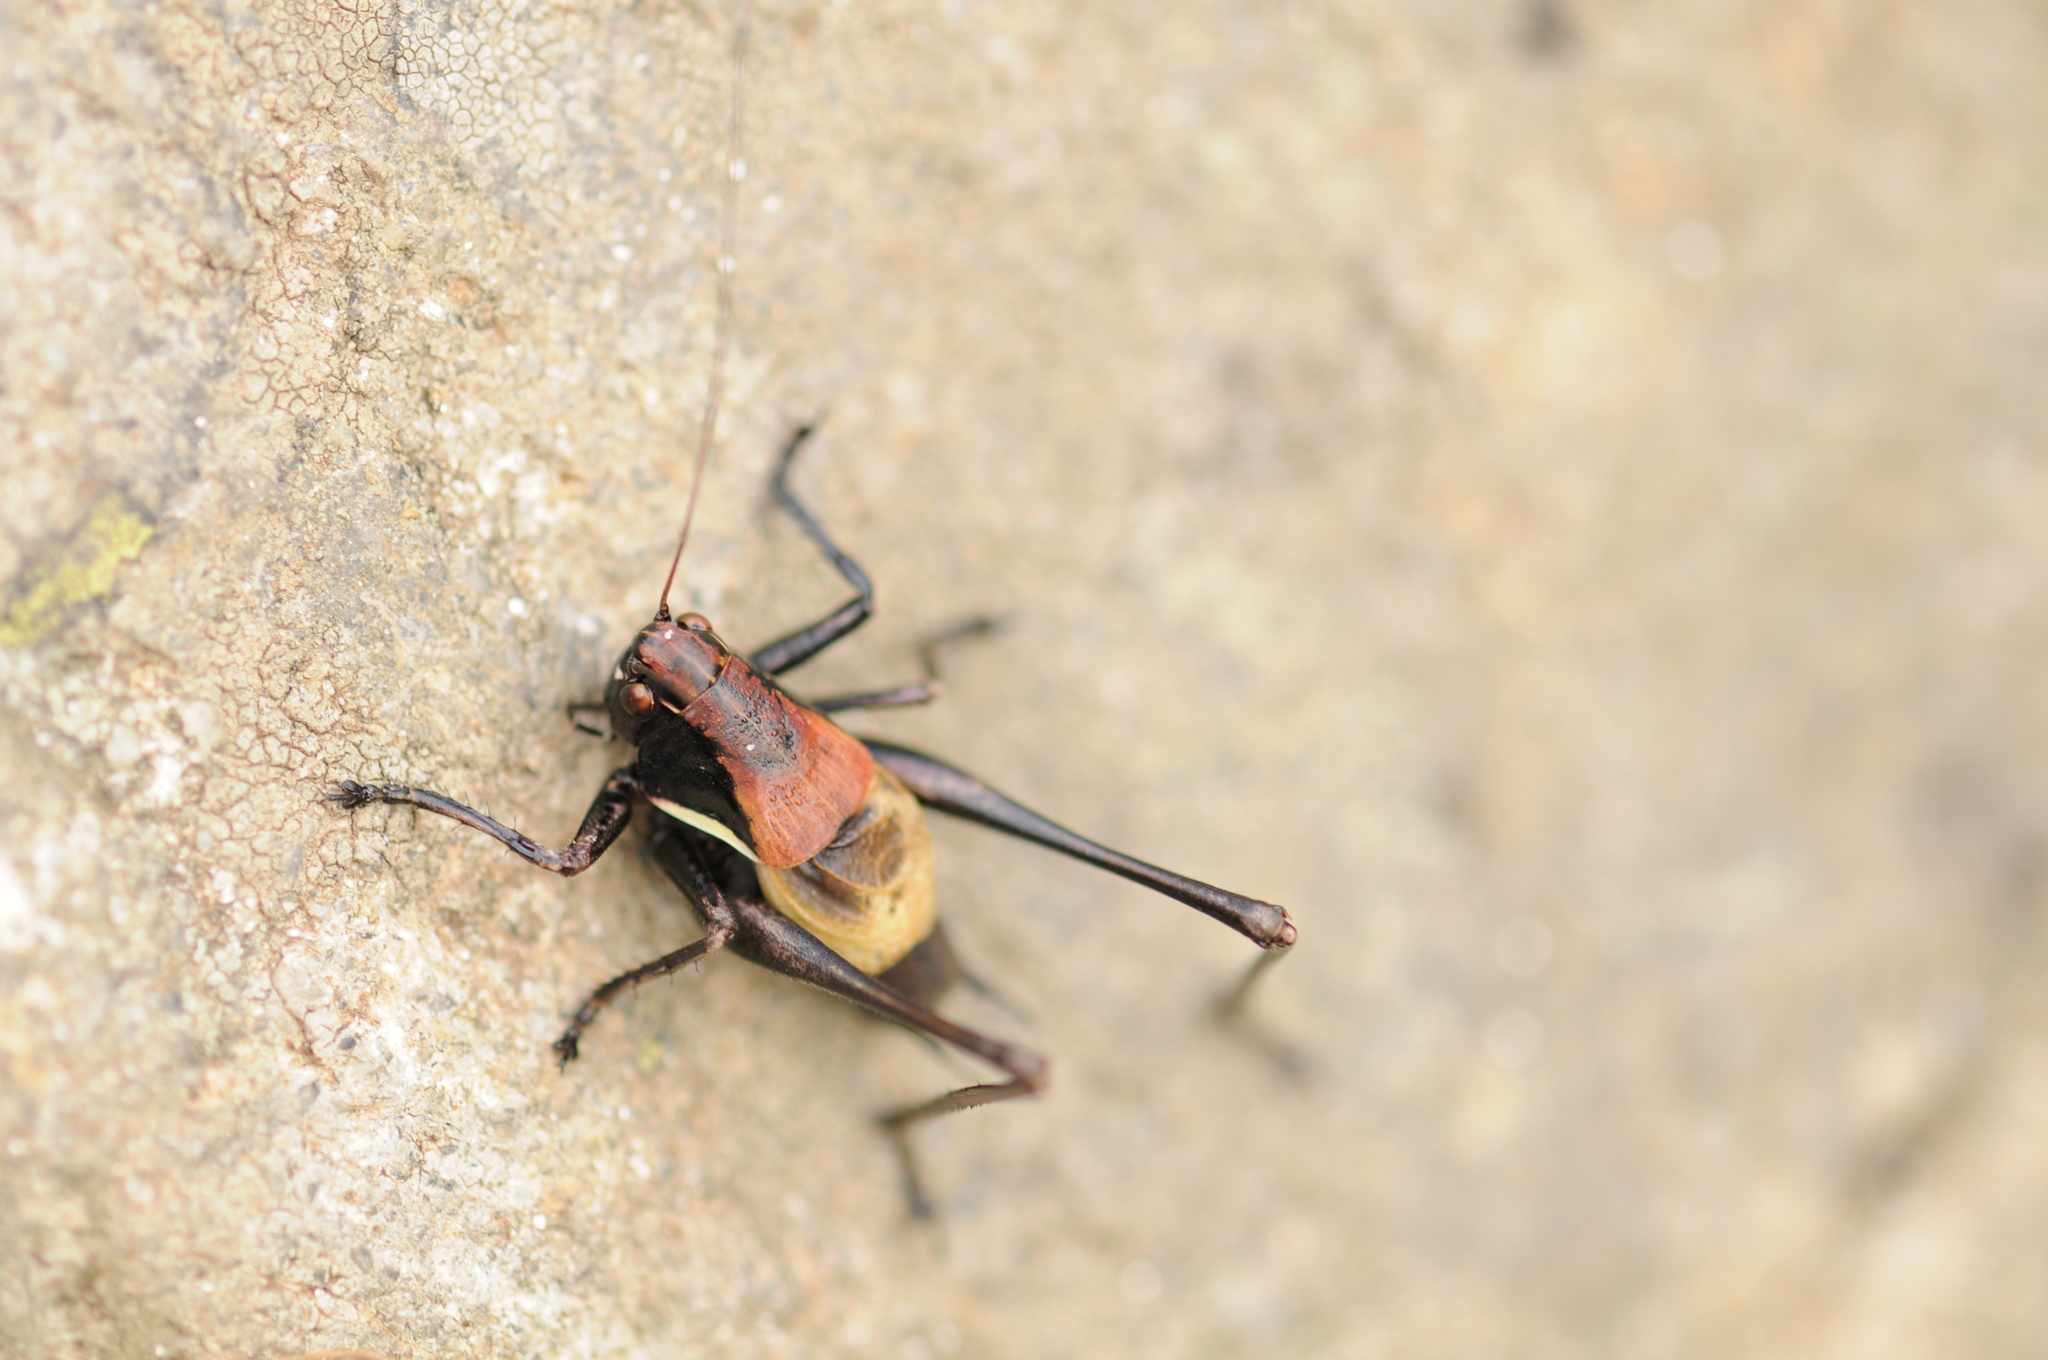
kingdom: Animalia
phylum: Arthropoda
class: Insecta
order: Orthoptera
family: Tettigoniidae
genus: Pholidoptera
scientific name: Pholidoptera aptera
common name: Alpine dark bush-cricket
